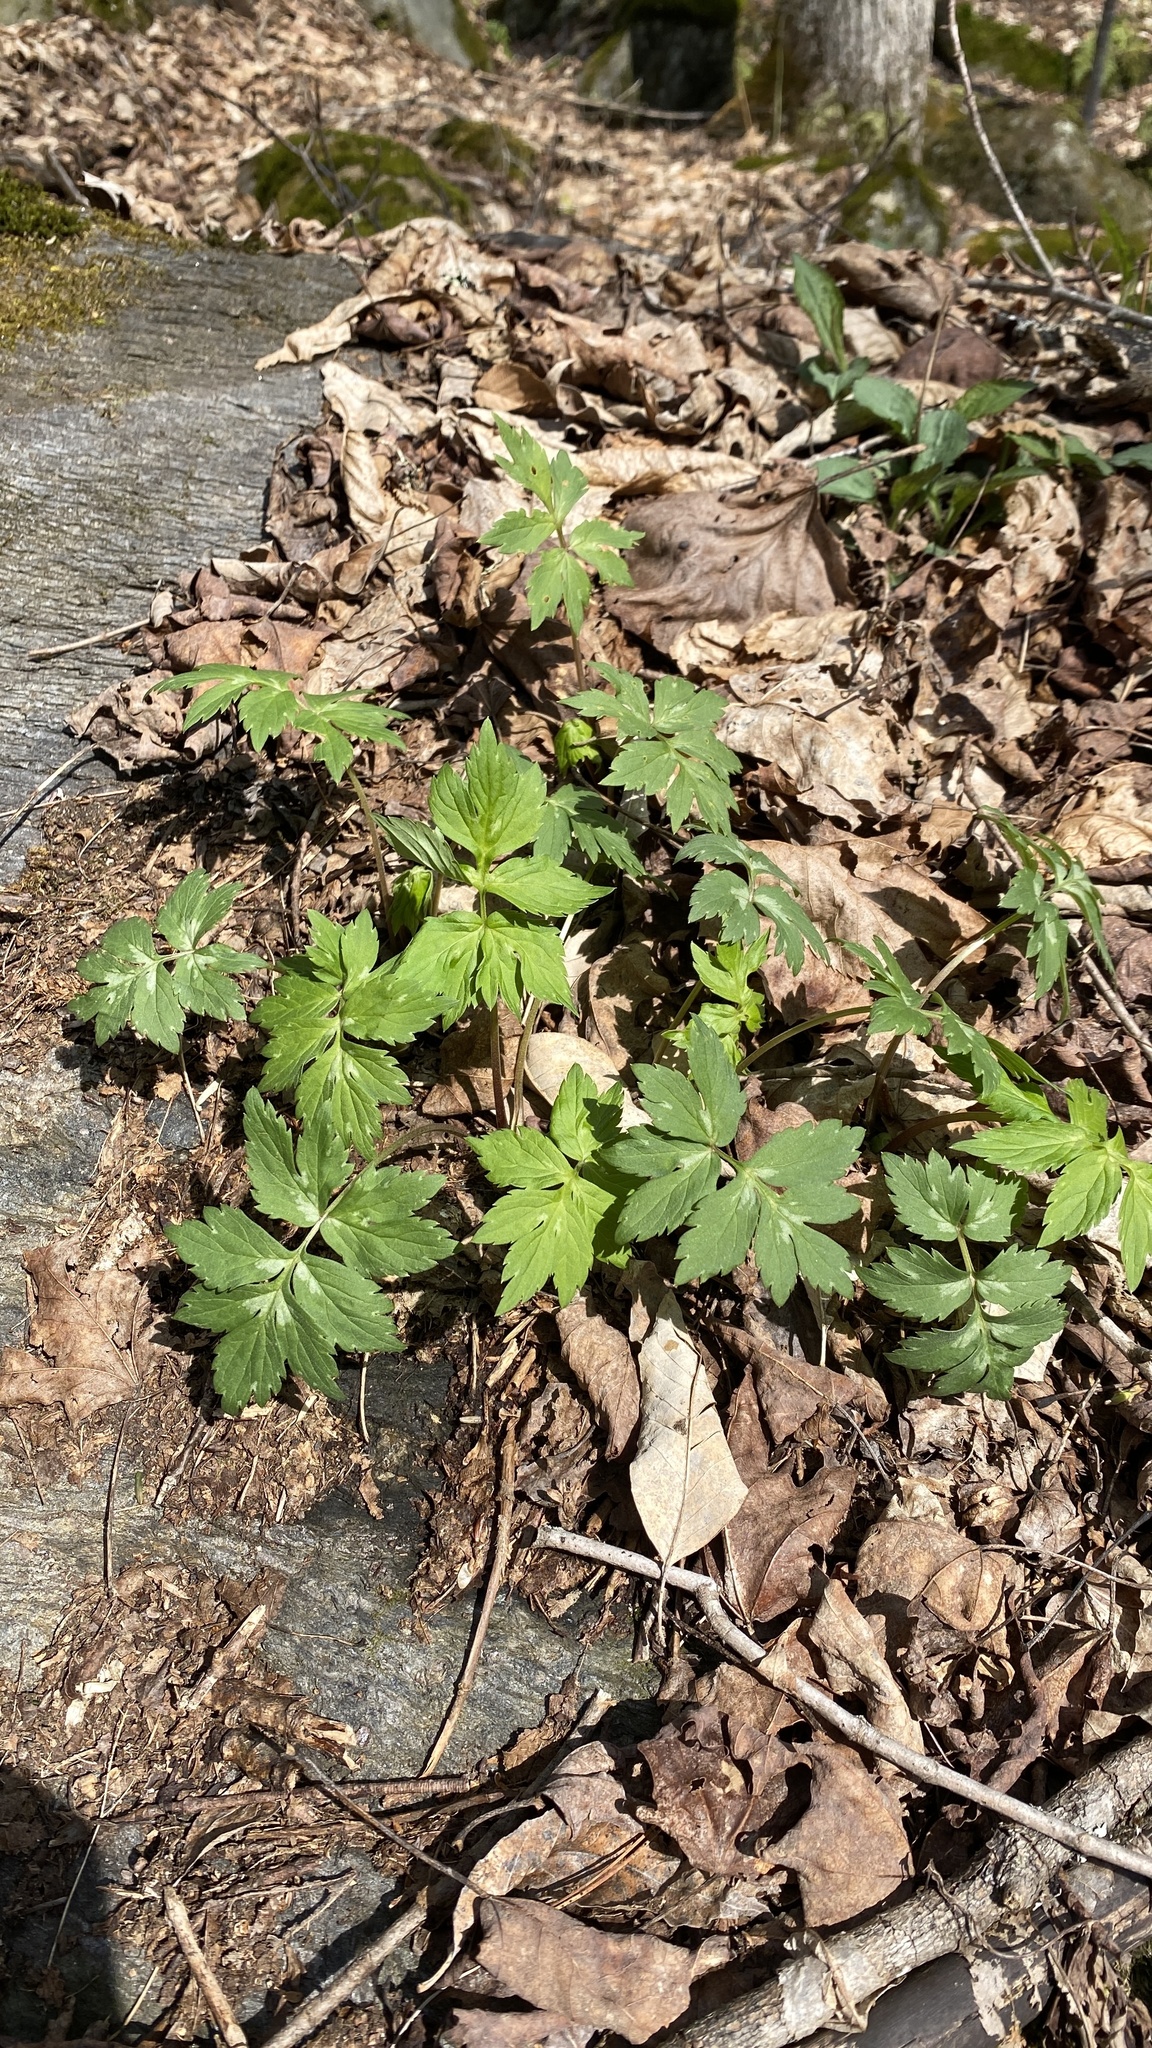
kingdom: Plantae
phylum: Tracheophyta
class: Magnoliopsida
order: Boraginales
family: Hydrophyllaceae
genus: Hydrophyllum
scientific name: Hydrophyllum virginianum
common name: Virginia waterleaf
